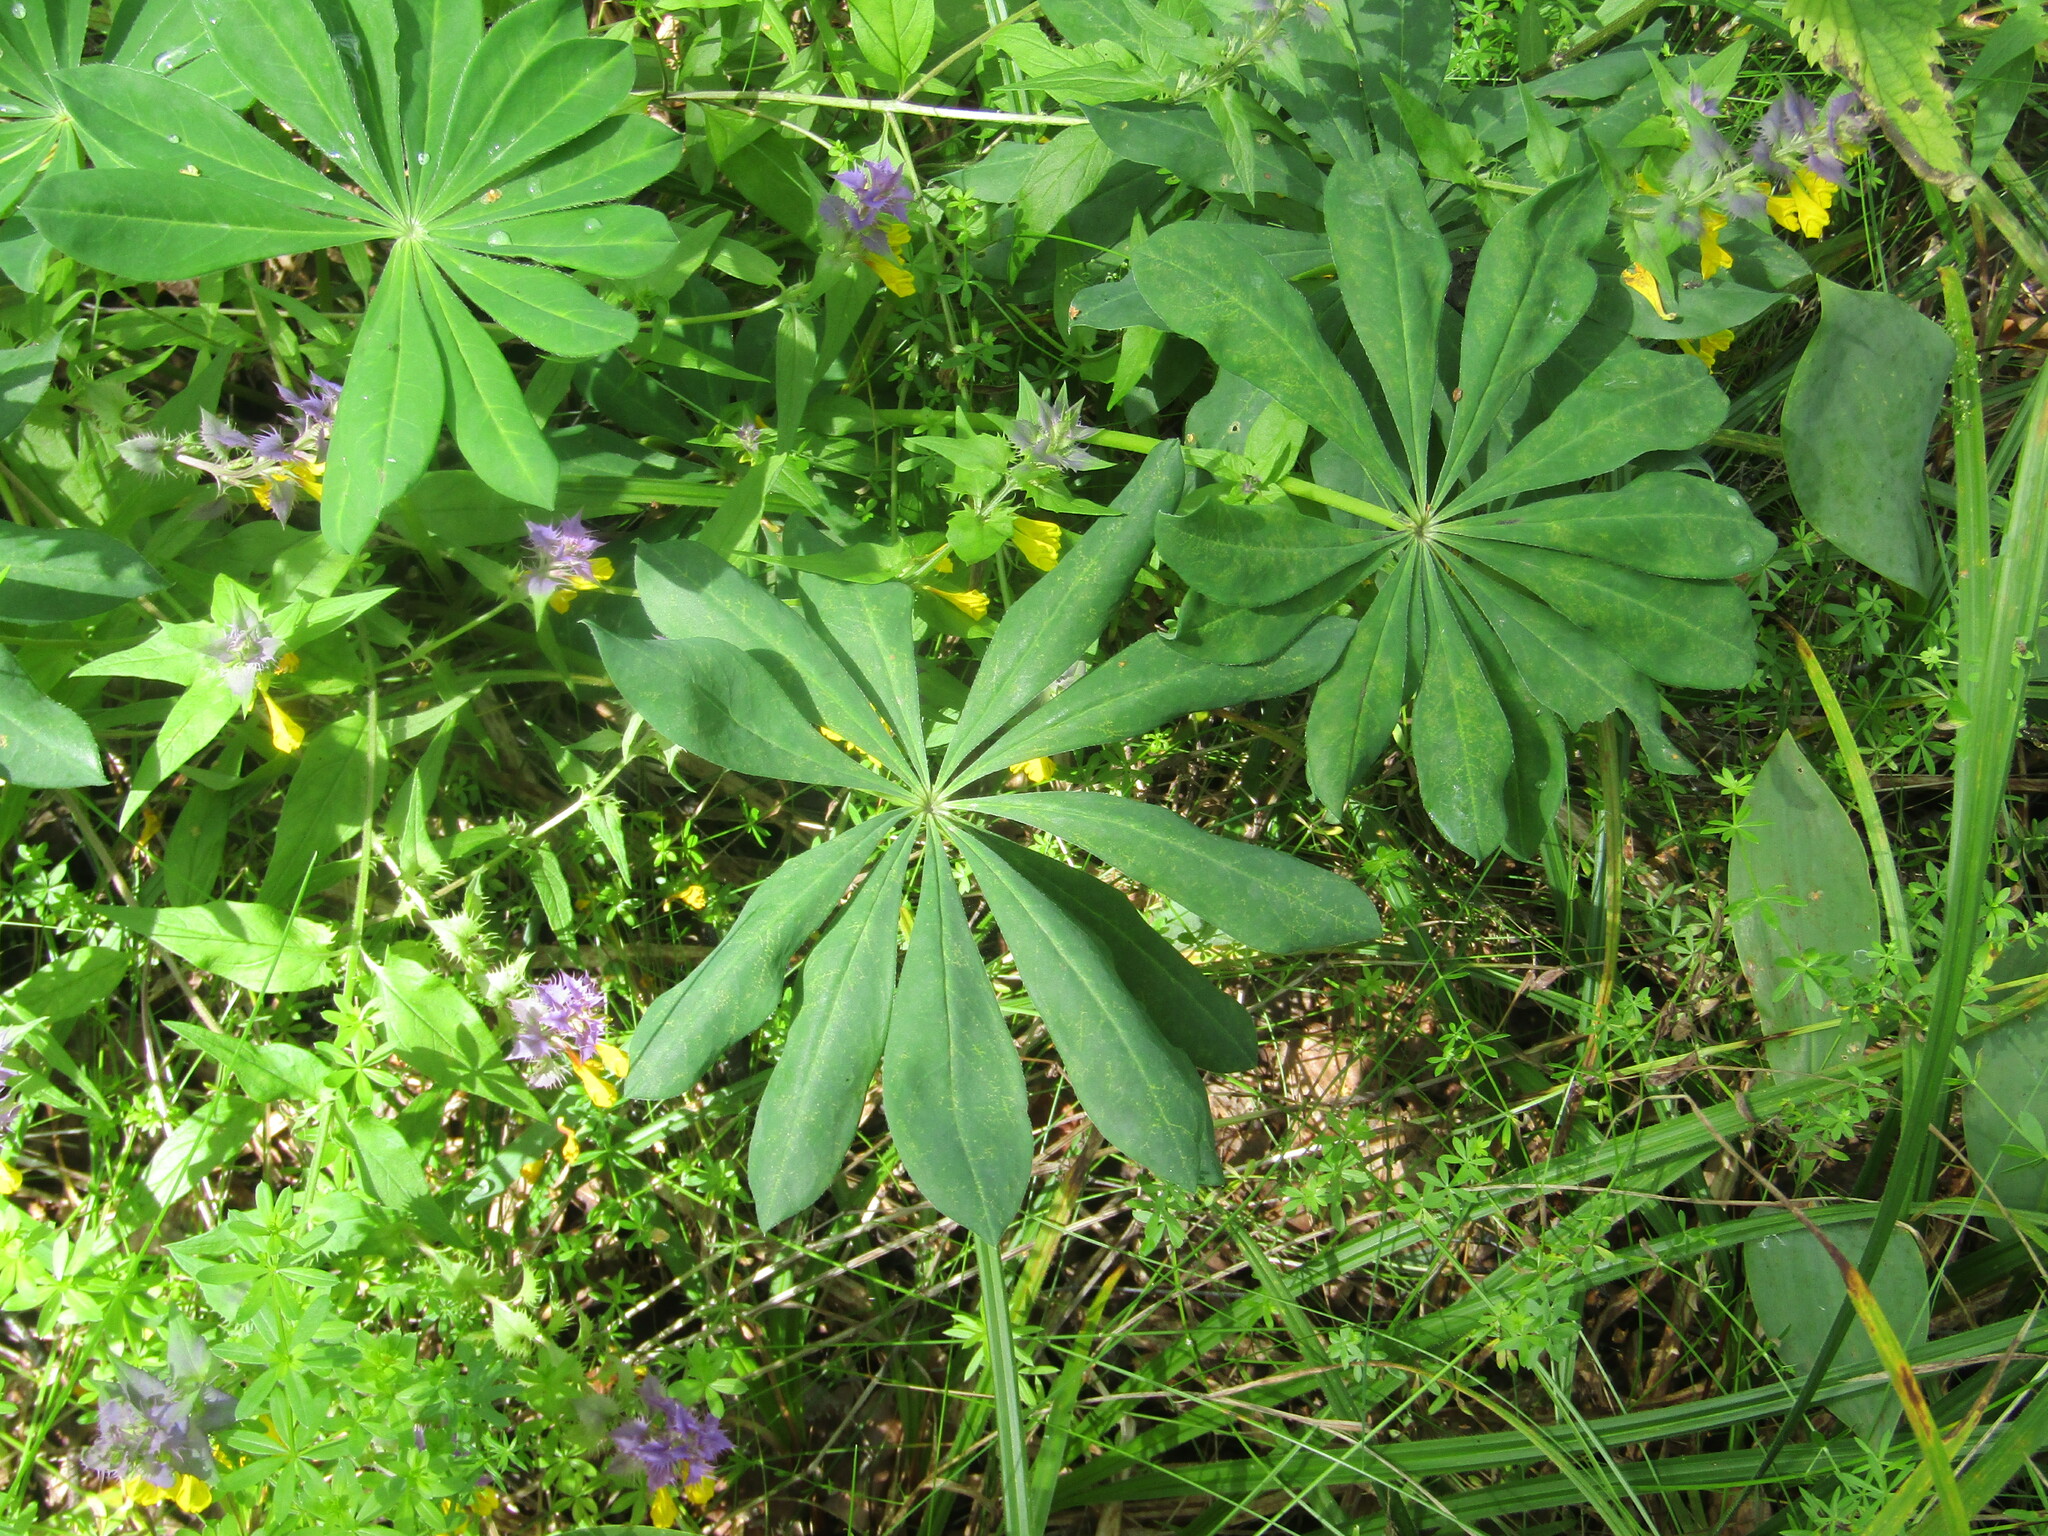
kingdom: Plantae
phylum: Tracheophyta
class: Magnoliopsida
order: Fabales
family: Fabaceae
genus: Lupinus
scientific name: Lupinus polyphyllus
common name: Garden lupin
